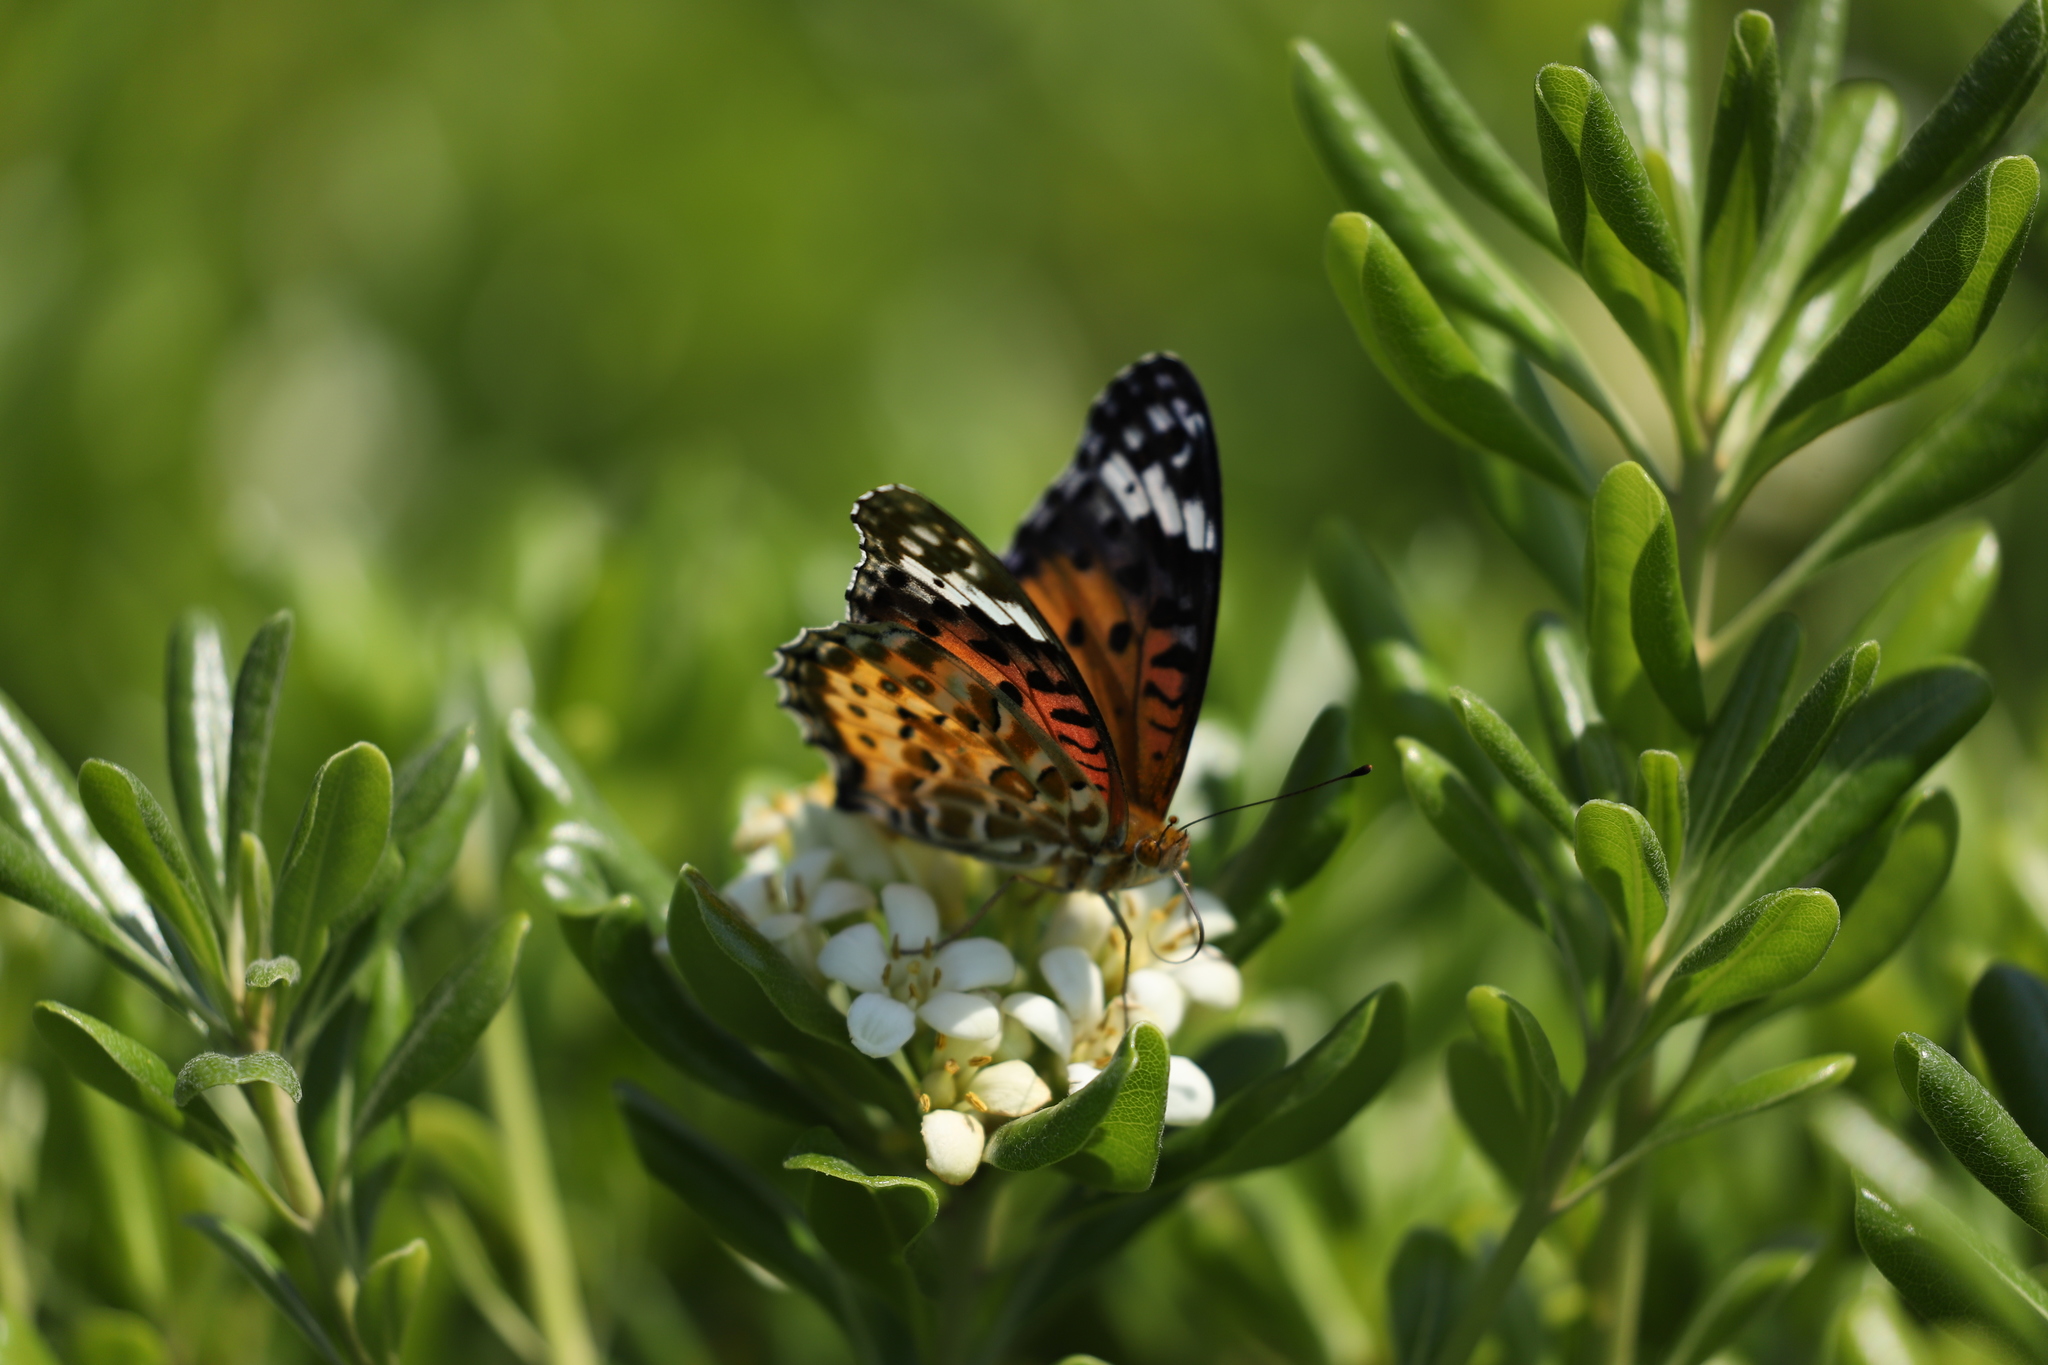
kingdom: Animalia
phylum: Arthropoda
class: Insecta
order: Lepidoptera
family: Nymphalidae
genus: Argynnis
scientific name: Argynnis hyperbius
